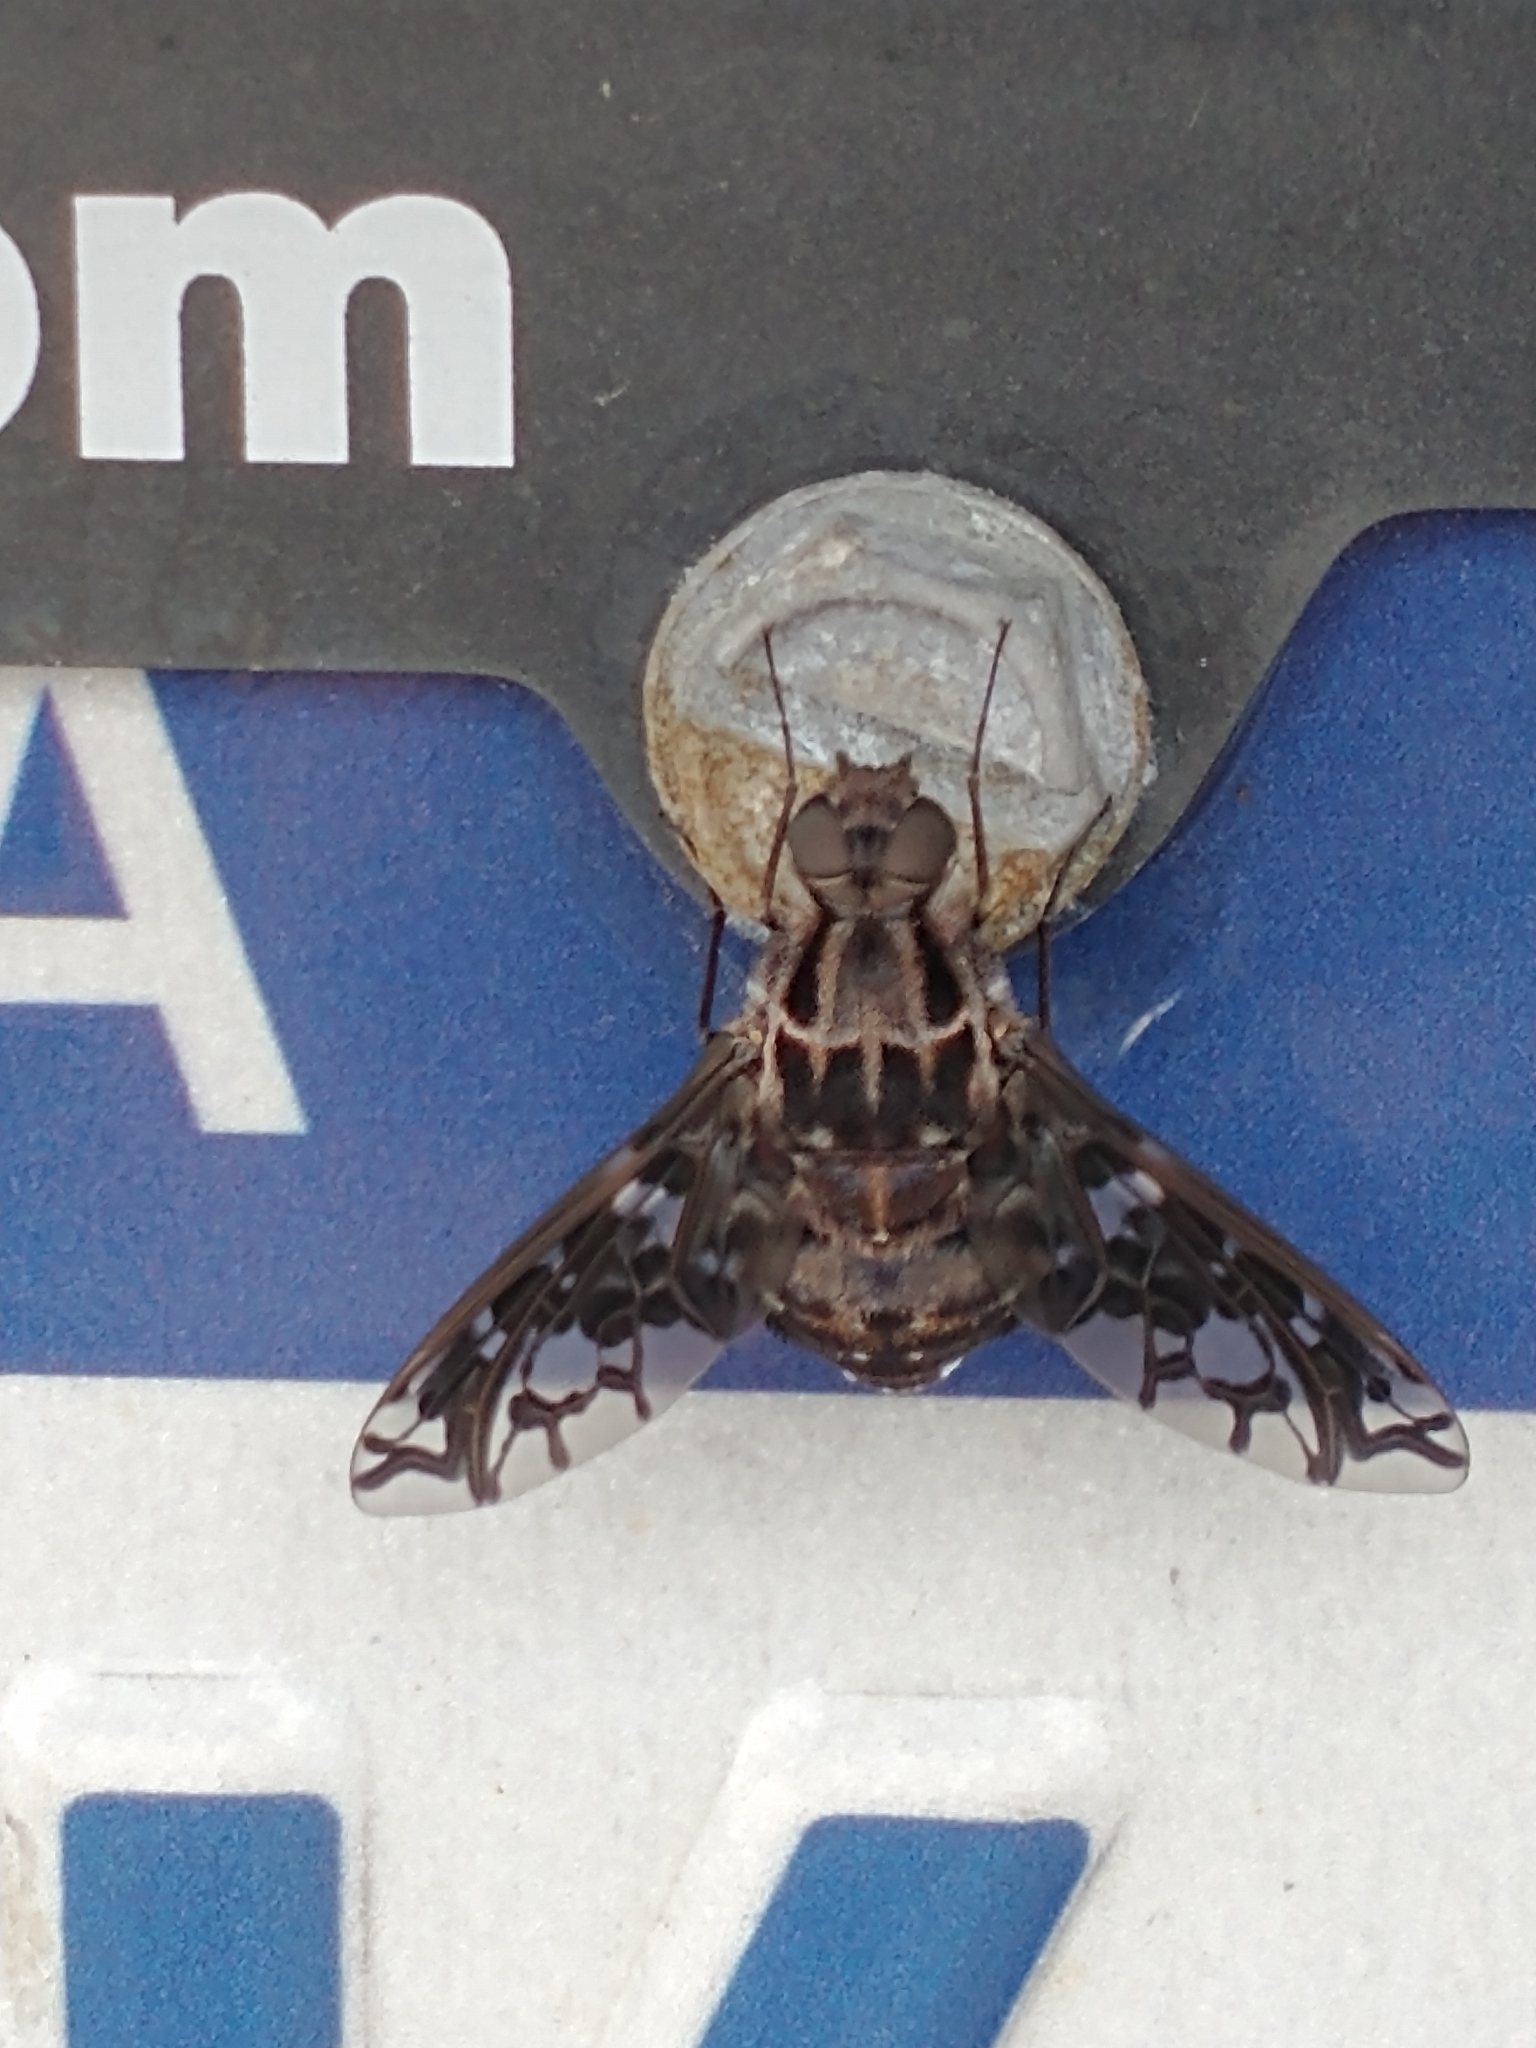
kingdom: Animalia
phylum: Arthropoda
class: Insecta
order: Diptera
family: Bombyliidae
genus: Xenox
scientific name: Xenox tigrinus
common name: Tiger bee fly
